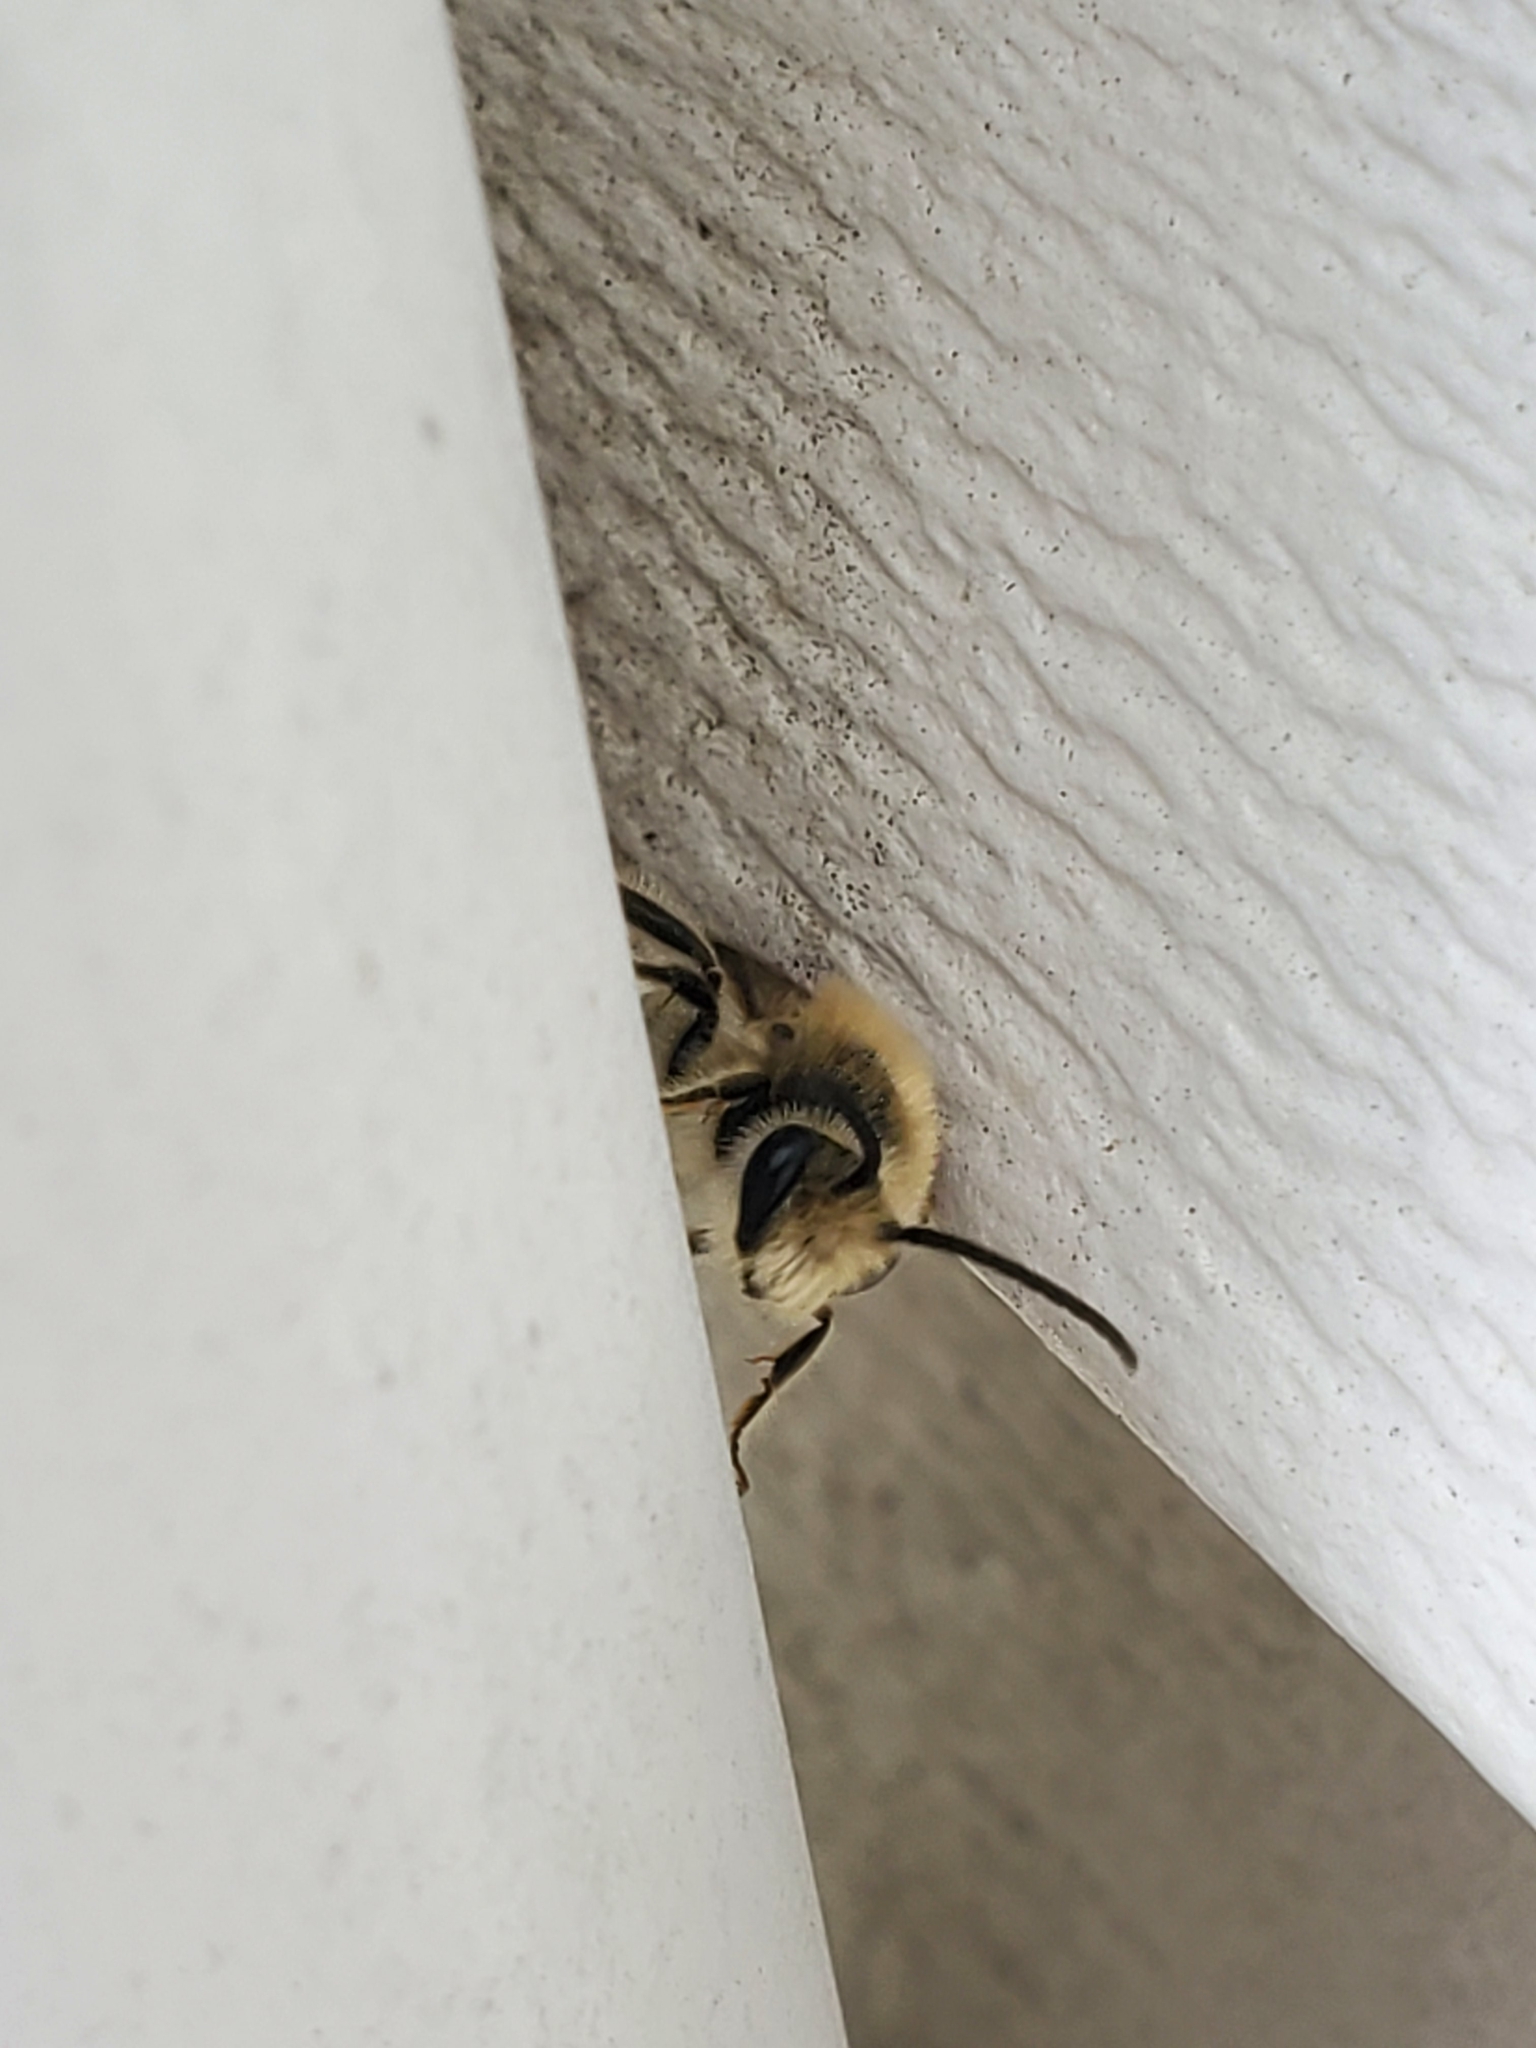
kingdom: Animalia
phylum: Arthropoda
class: Insecta
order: Hymenoptera
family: Colletidae
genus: Colletes
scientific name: Colletes inaequalis
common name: Unequal cellophane bee
